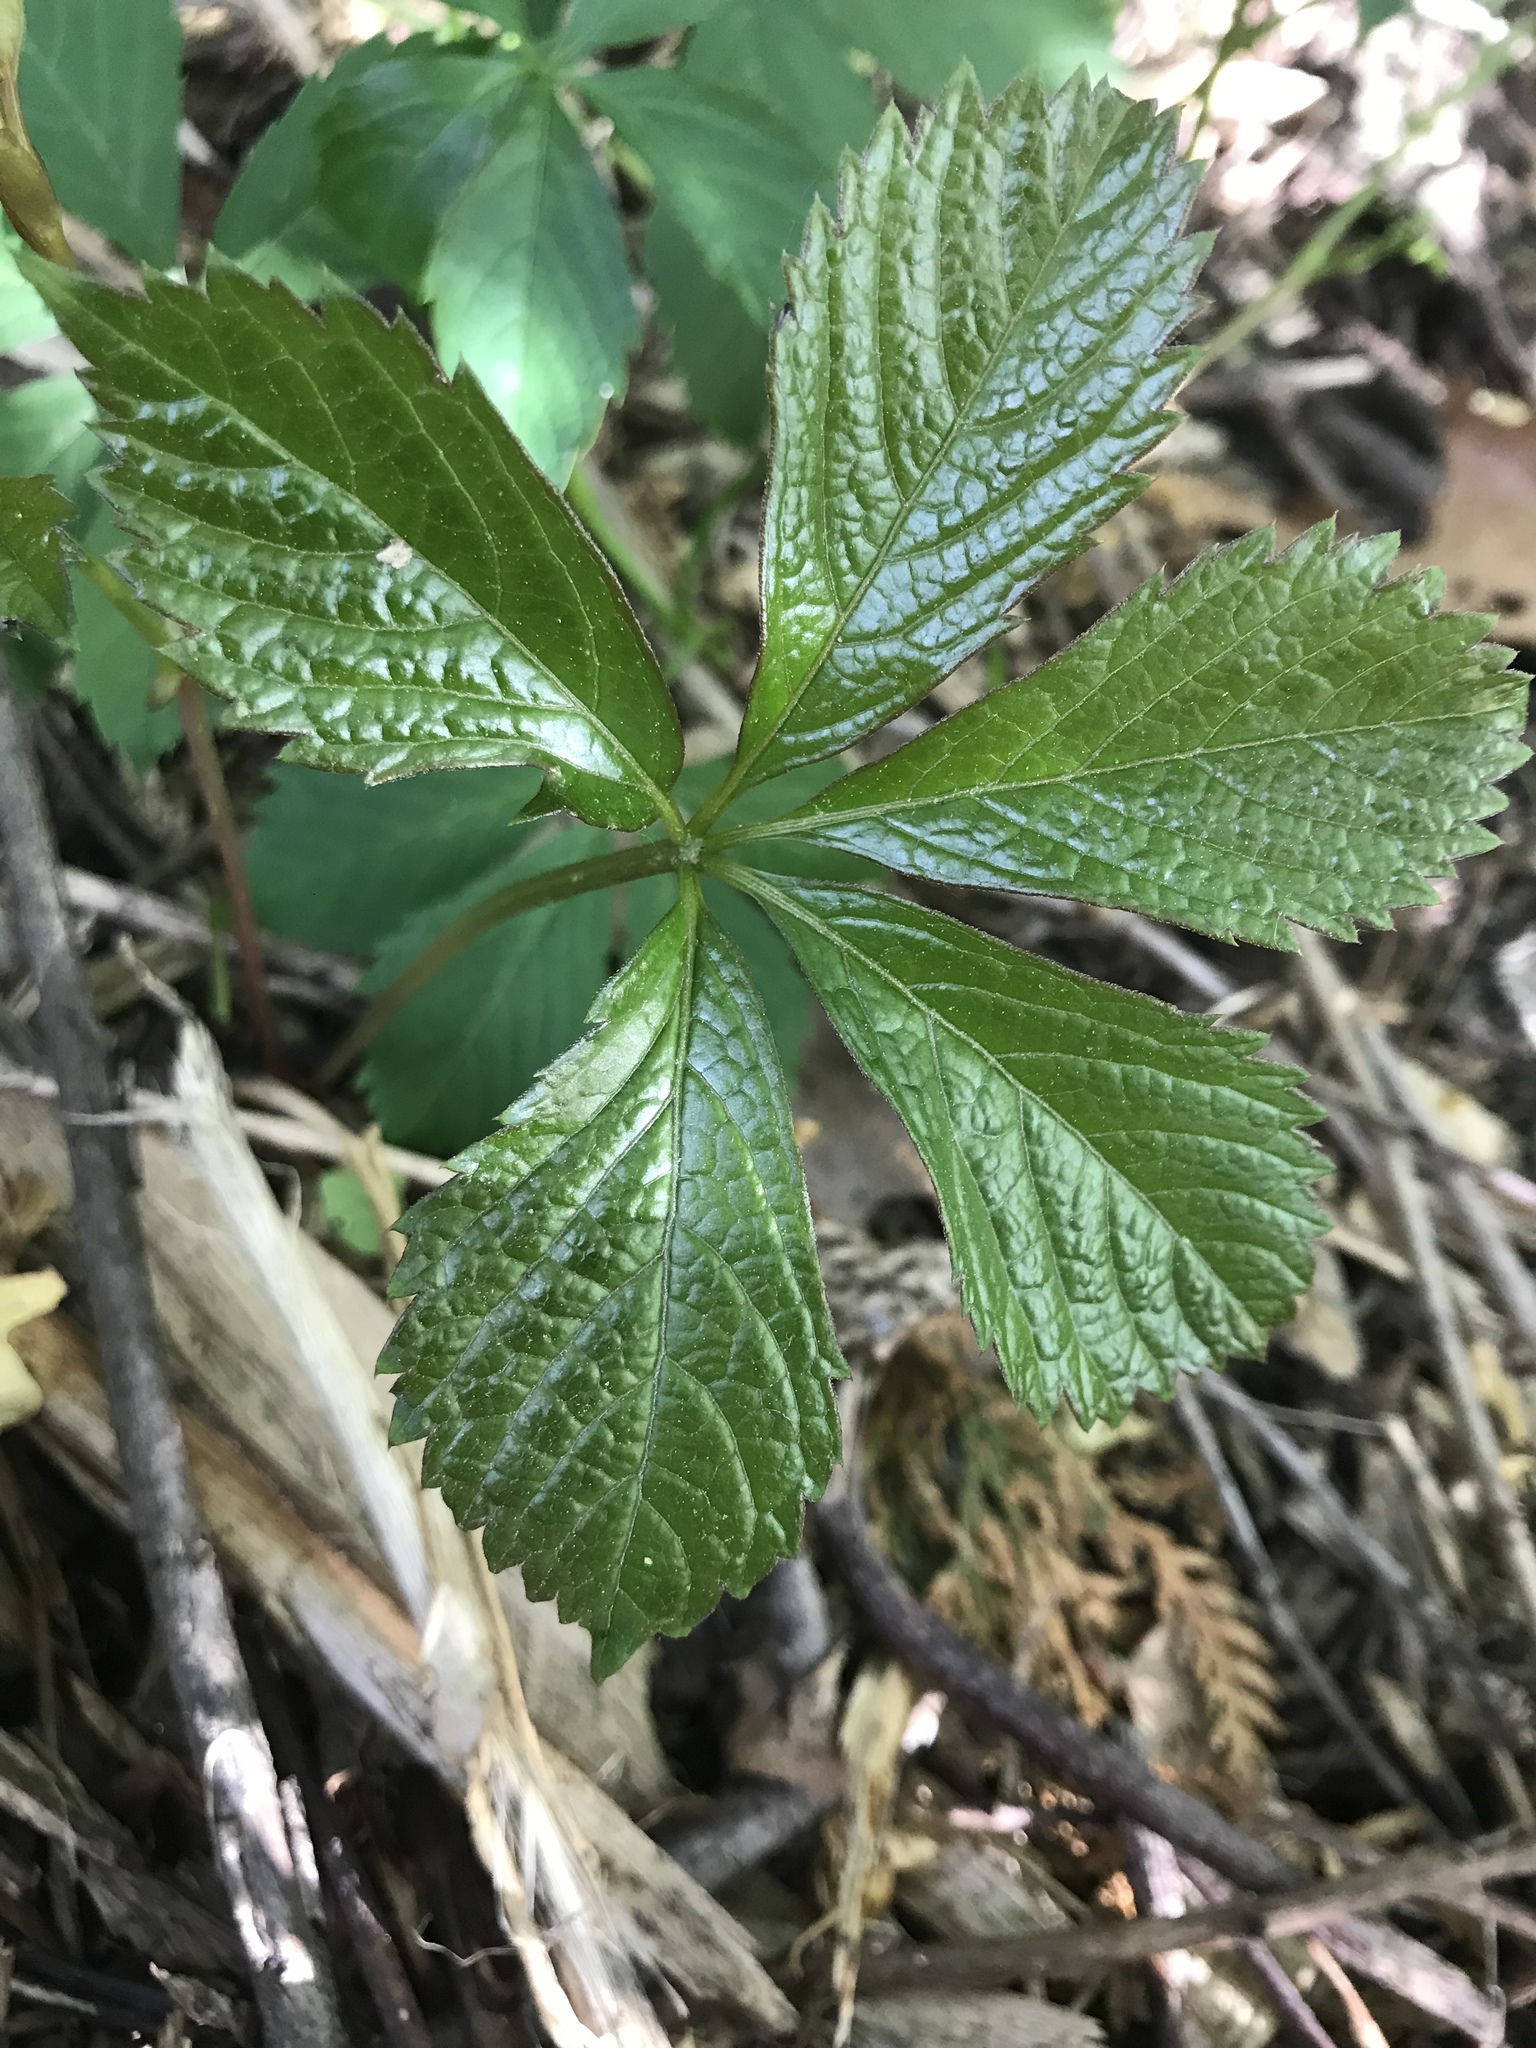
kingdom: Plantae
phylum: Tracheophyta
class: Magnoliopsida
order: Vitales
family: Vitaceae
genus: Parthenocissus
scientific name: Parthenocissus quinquefolia
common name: Virginia-creeper
